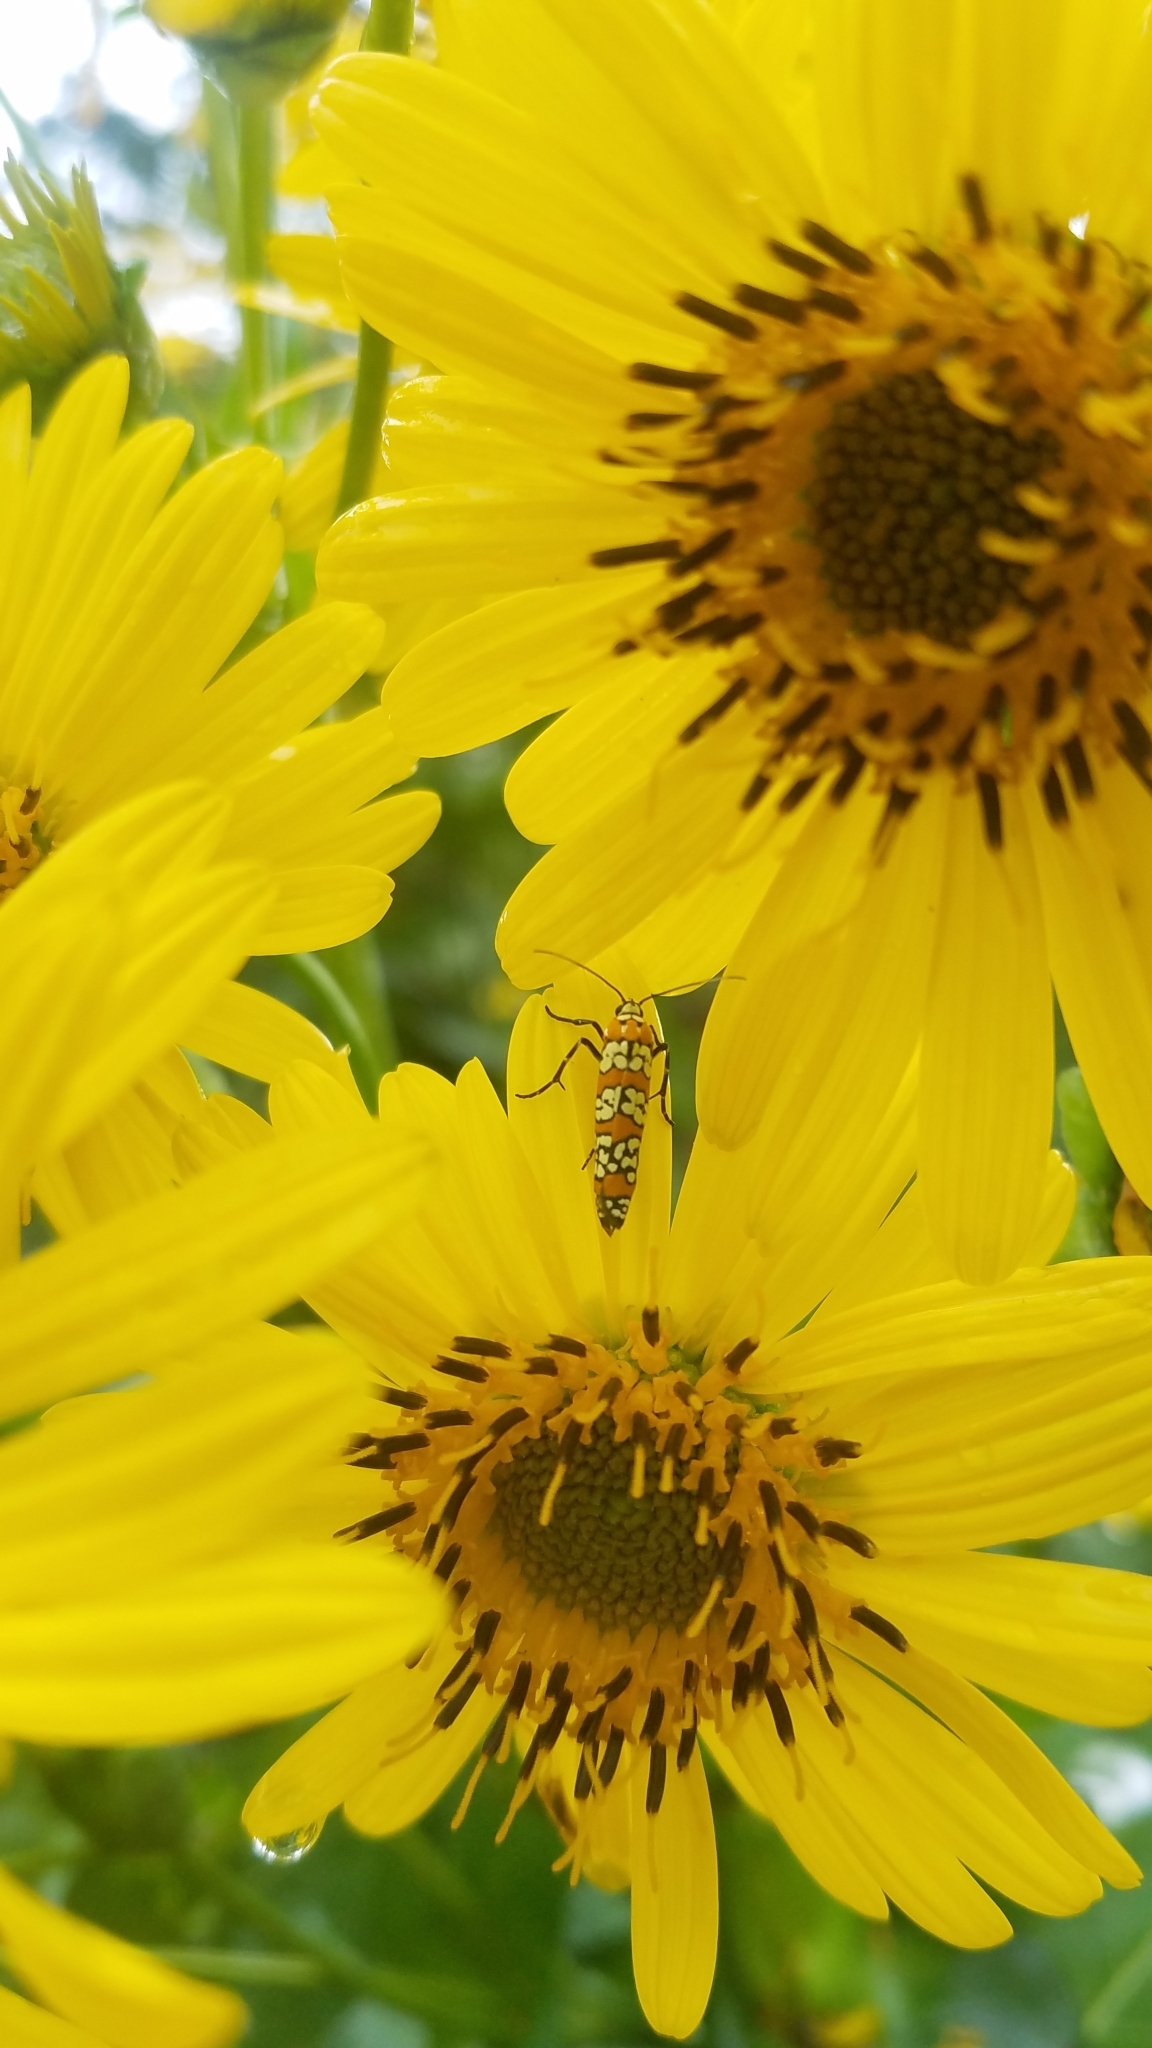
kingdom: Animalia
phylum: Arthropoda
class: Insecta
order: Lepidoptera
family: Attevidae
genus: Atteva
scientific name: Atteva punctella
